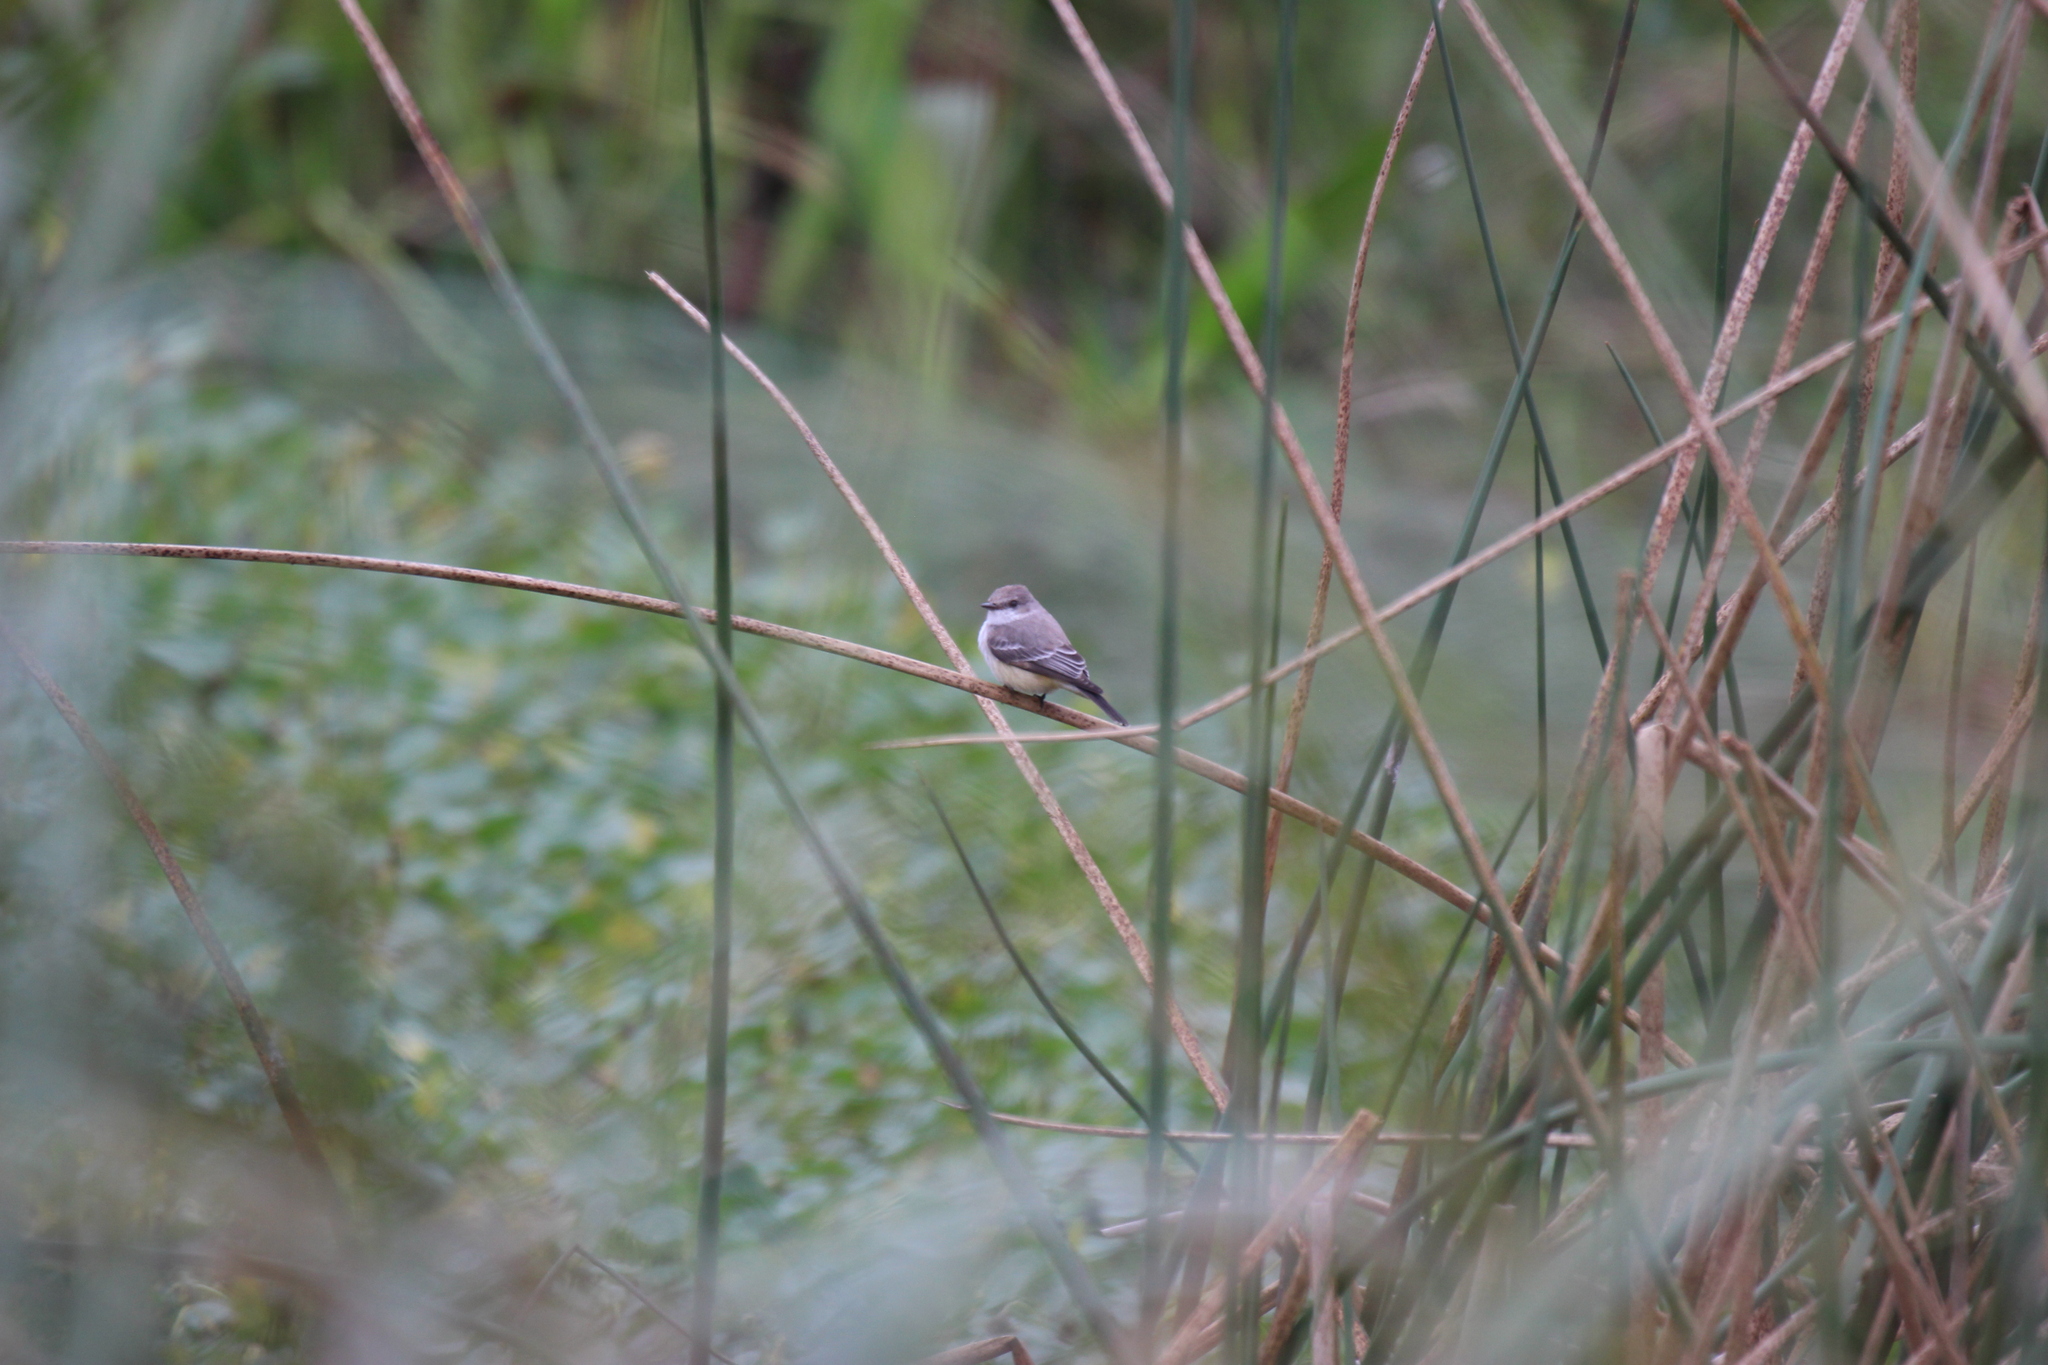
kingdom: Animalia
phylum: Chordata
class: Aves
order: Passeriformes
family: Tyrannidae
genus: Pyrocephalus
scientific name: Pyrocephalus rubinus
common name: Vermilion flycatcher
